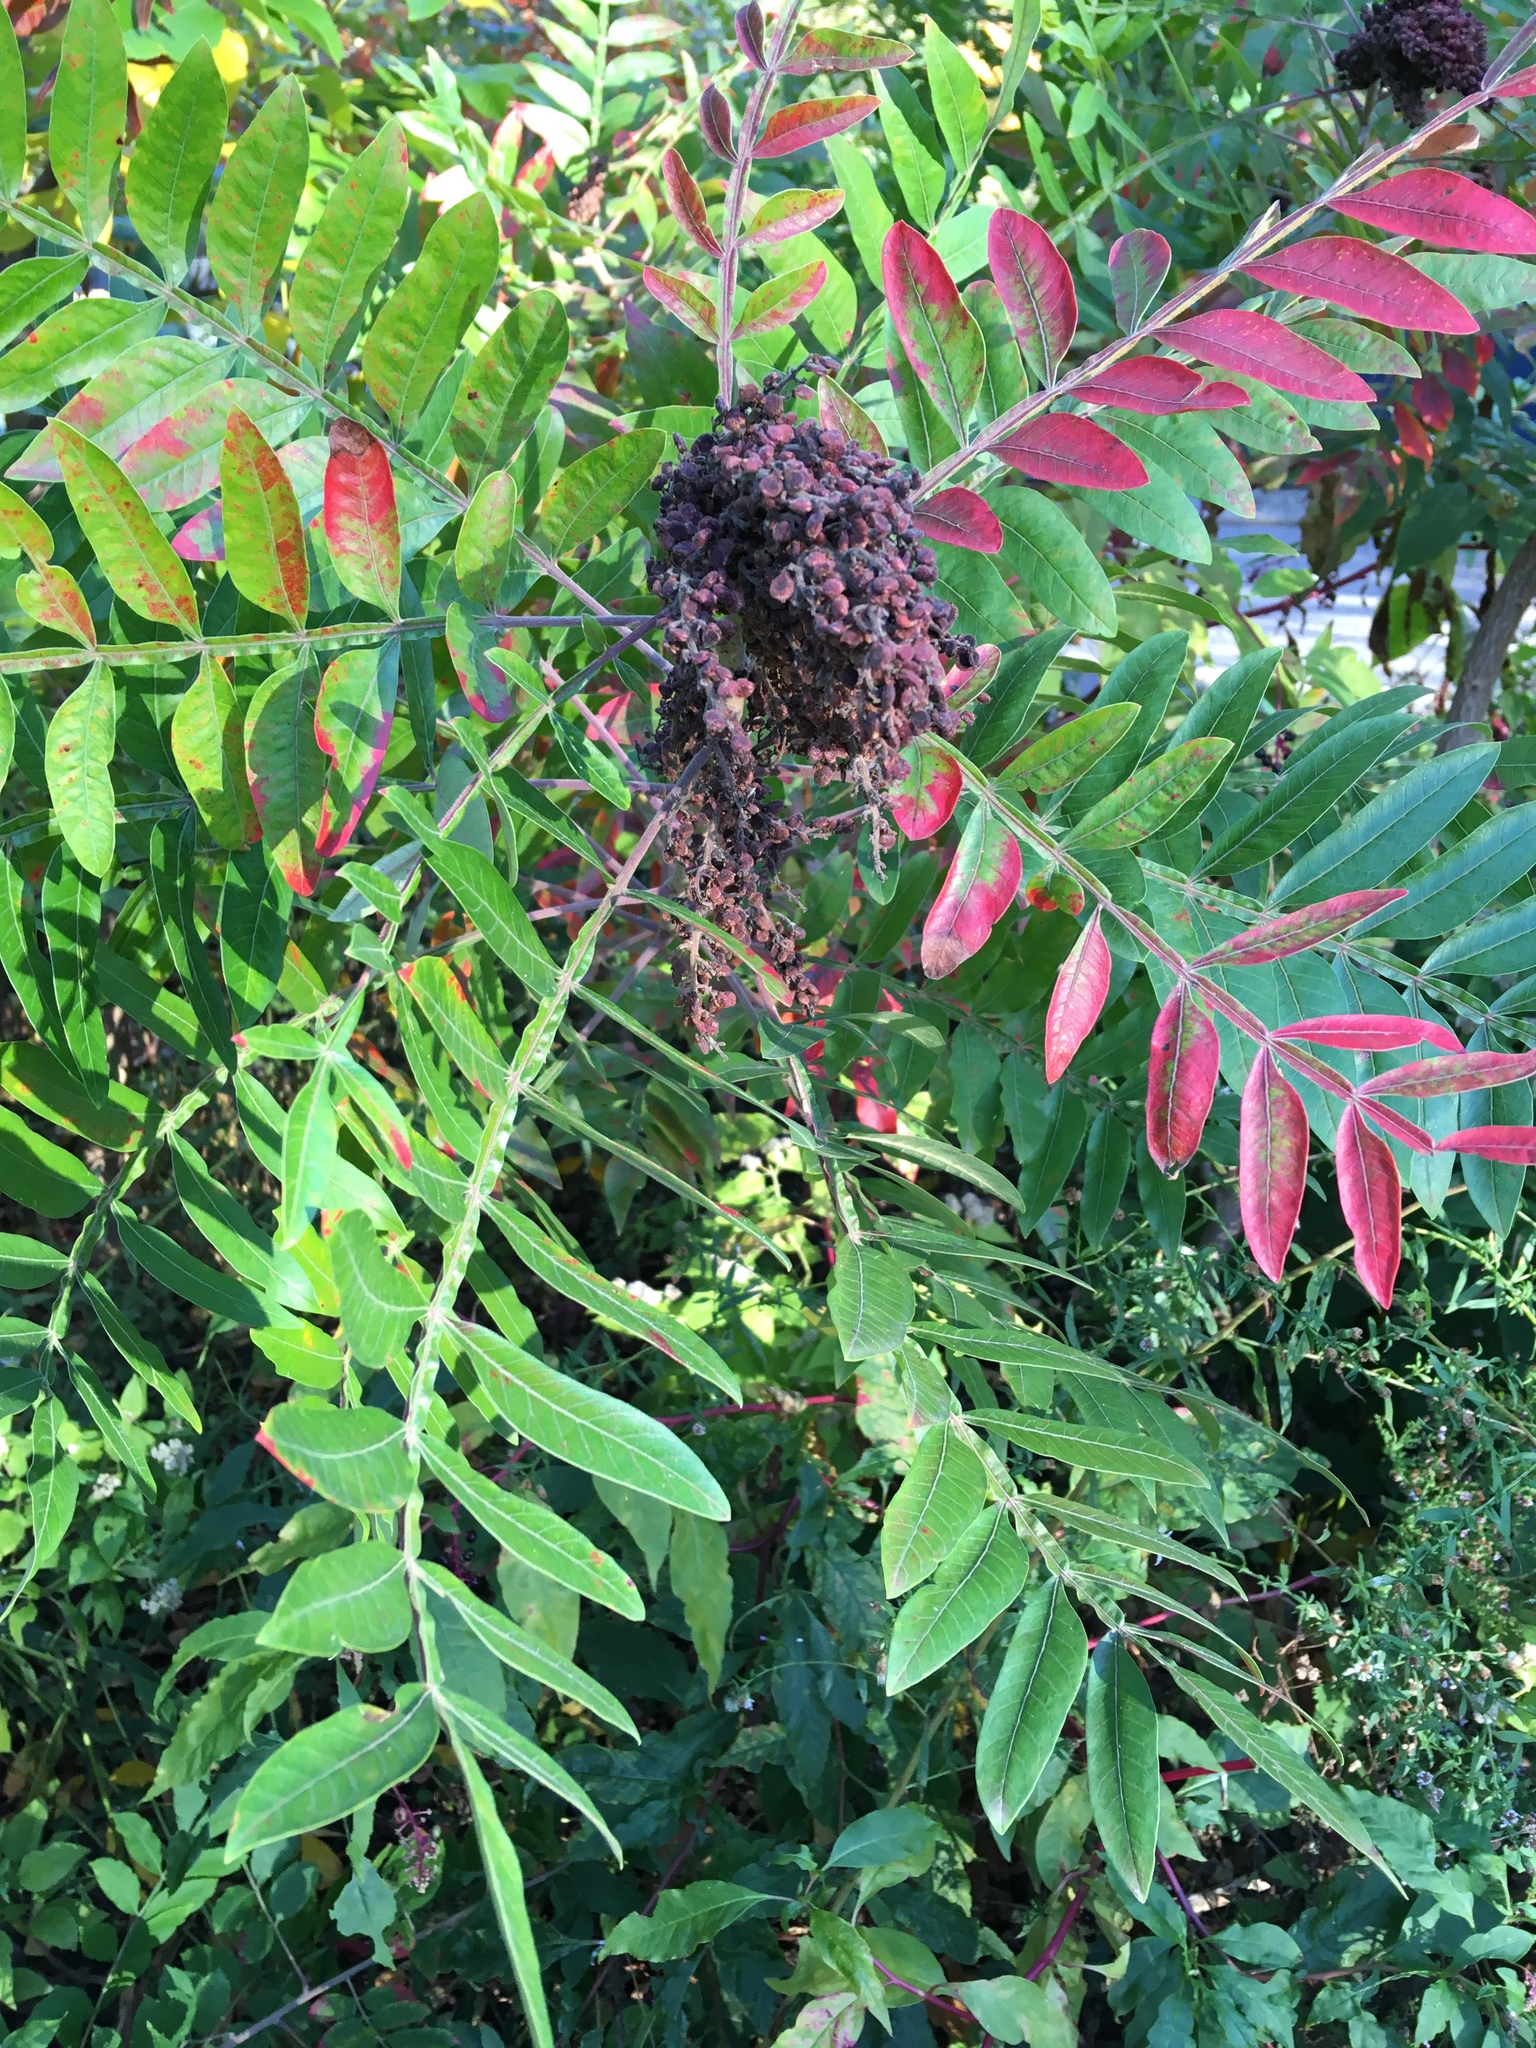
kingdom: Plantae
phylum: Tracheophyta
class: Magnoliopsida
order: Sapindales
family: Anacardiaceae
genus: Rhus
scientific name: Rhus copallina
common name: Shining sumac
